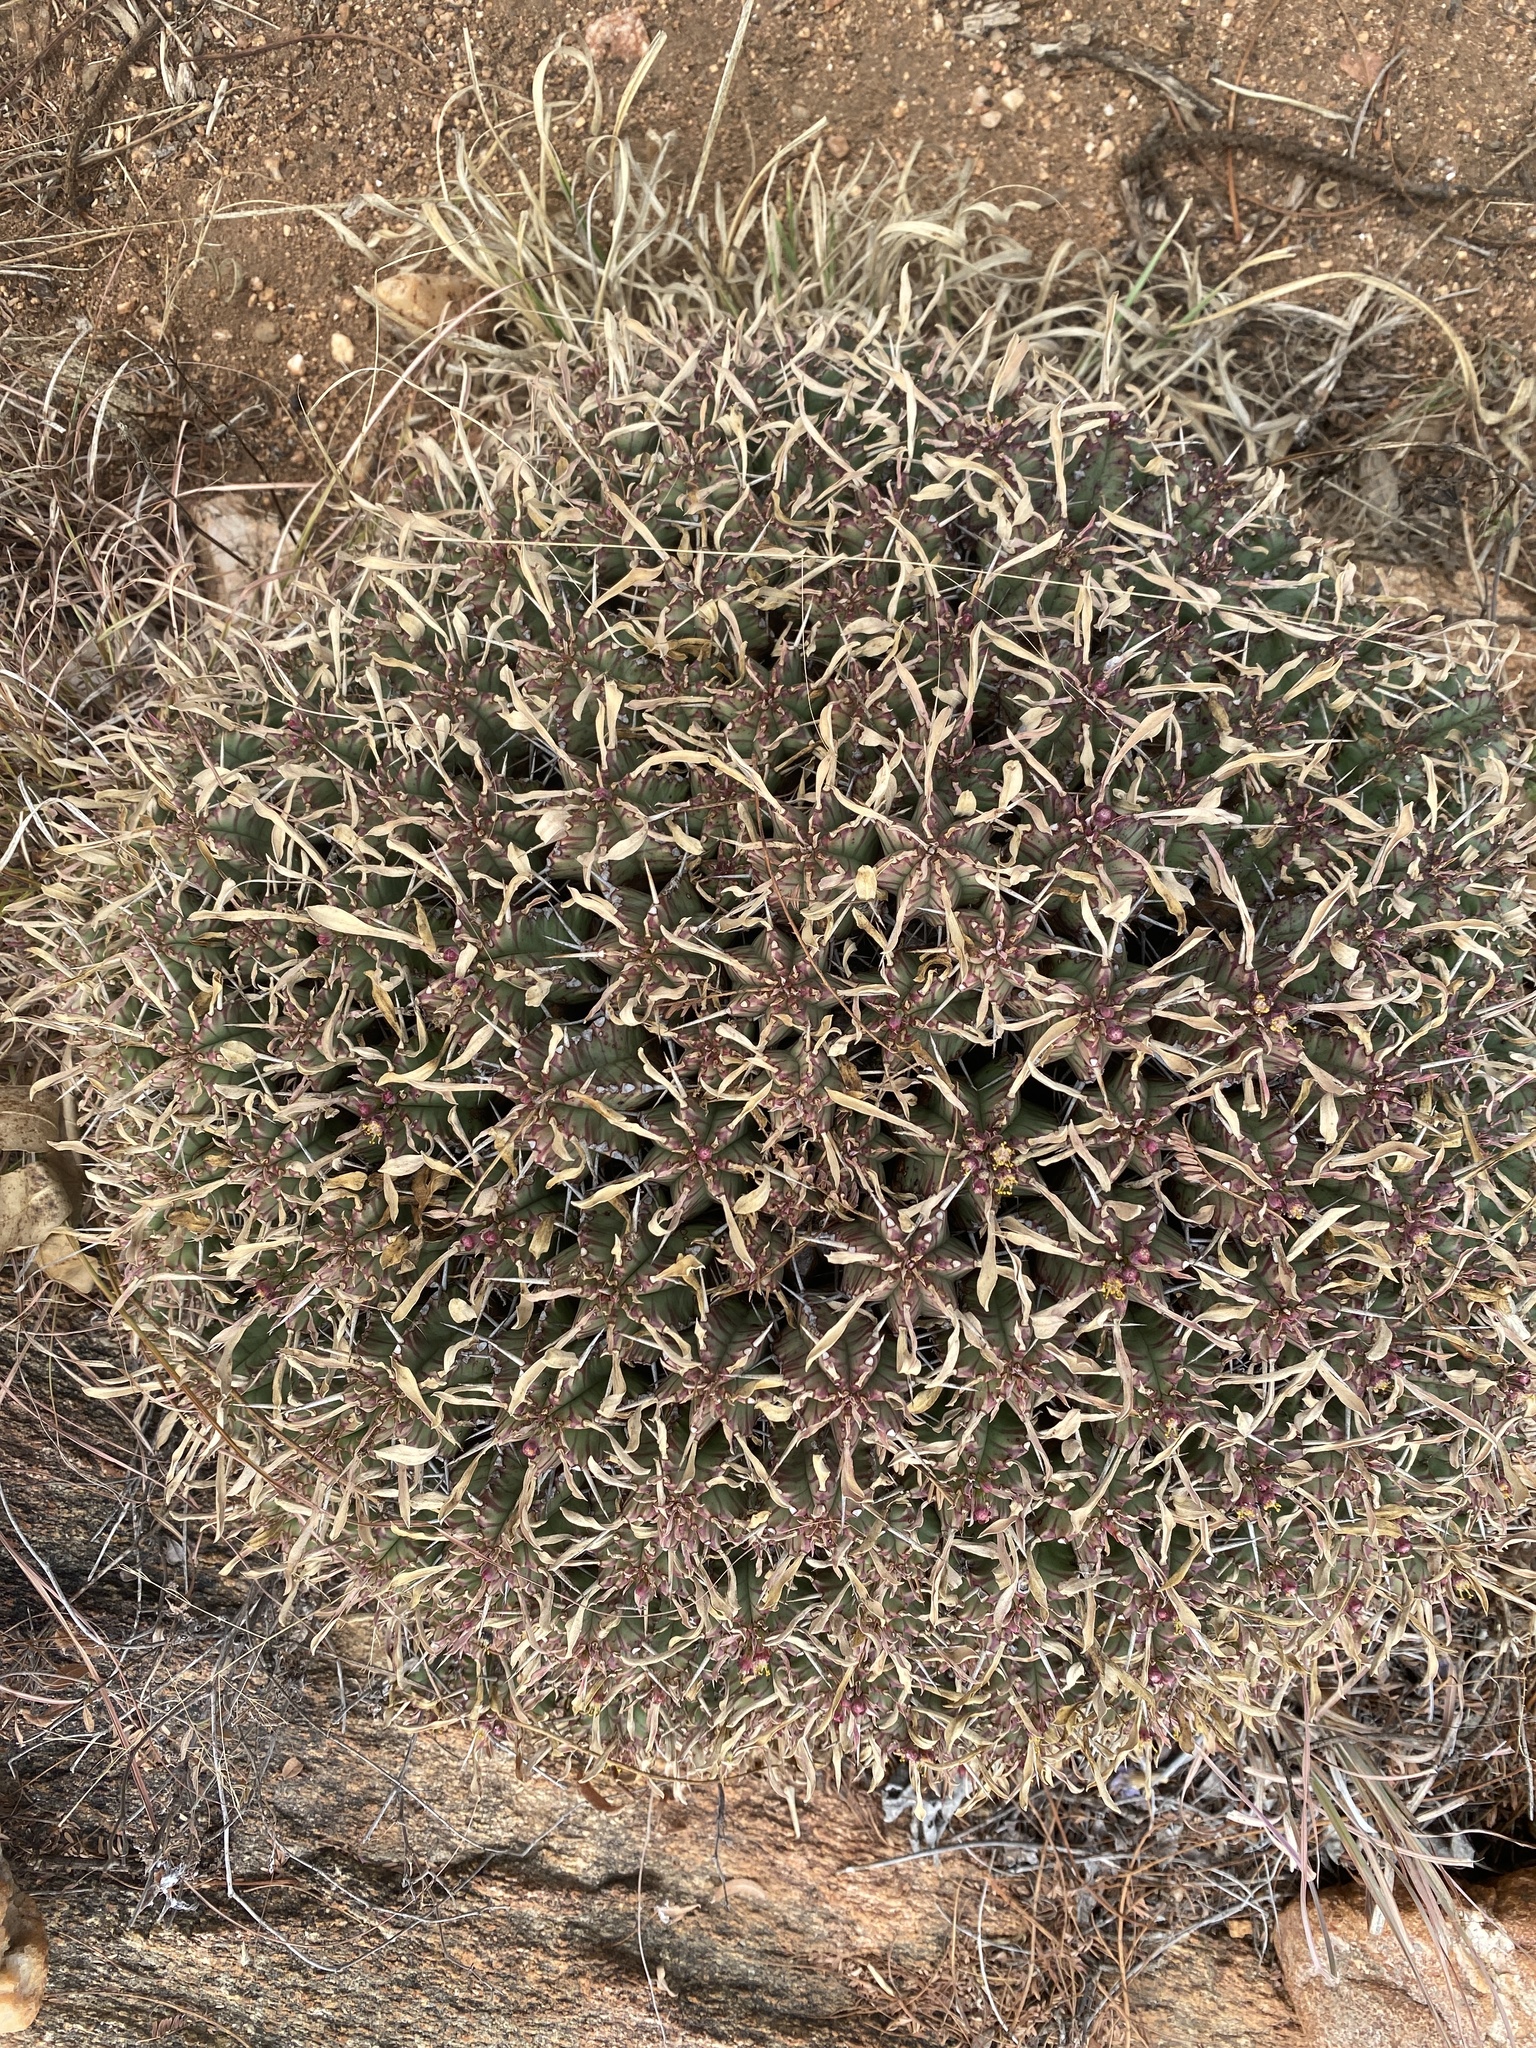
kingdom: Plantae
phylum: Tracheophyta
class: Magnoliopsida
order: Malpighiales
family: Euphorbiaceae
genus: Euphorbia
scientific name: Euphorbia pulvinata
